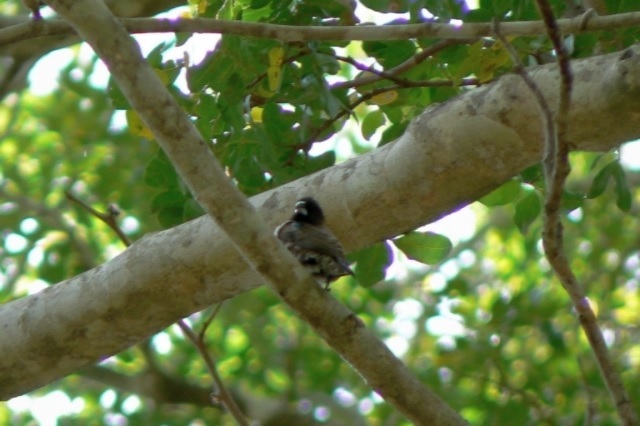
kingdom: Animalia
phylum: Chordata
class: Aves
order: Passeriformes
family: Estrildidae
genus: Lonchura
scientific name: Lonchura cucullata
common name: Bronze mannikin
